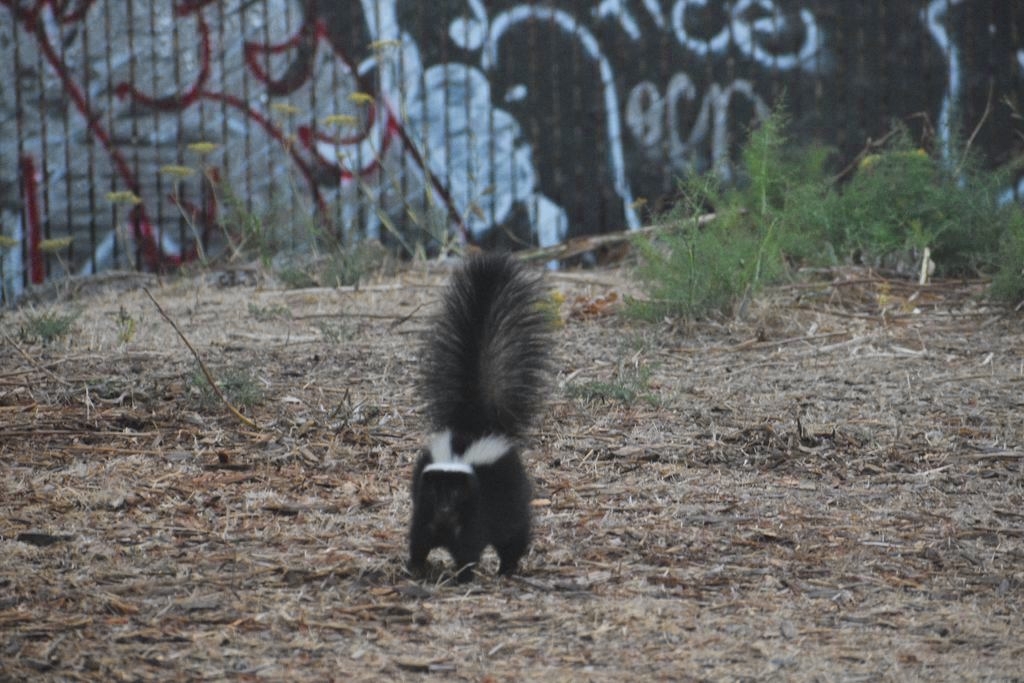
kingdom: Animalia
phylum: Chordata
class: Mammalia
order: Carnivora
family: Mephitidae
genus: Mephitis
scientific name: Mephitis mephitis
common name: Striped skunk
